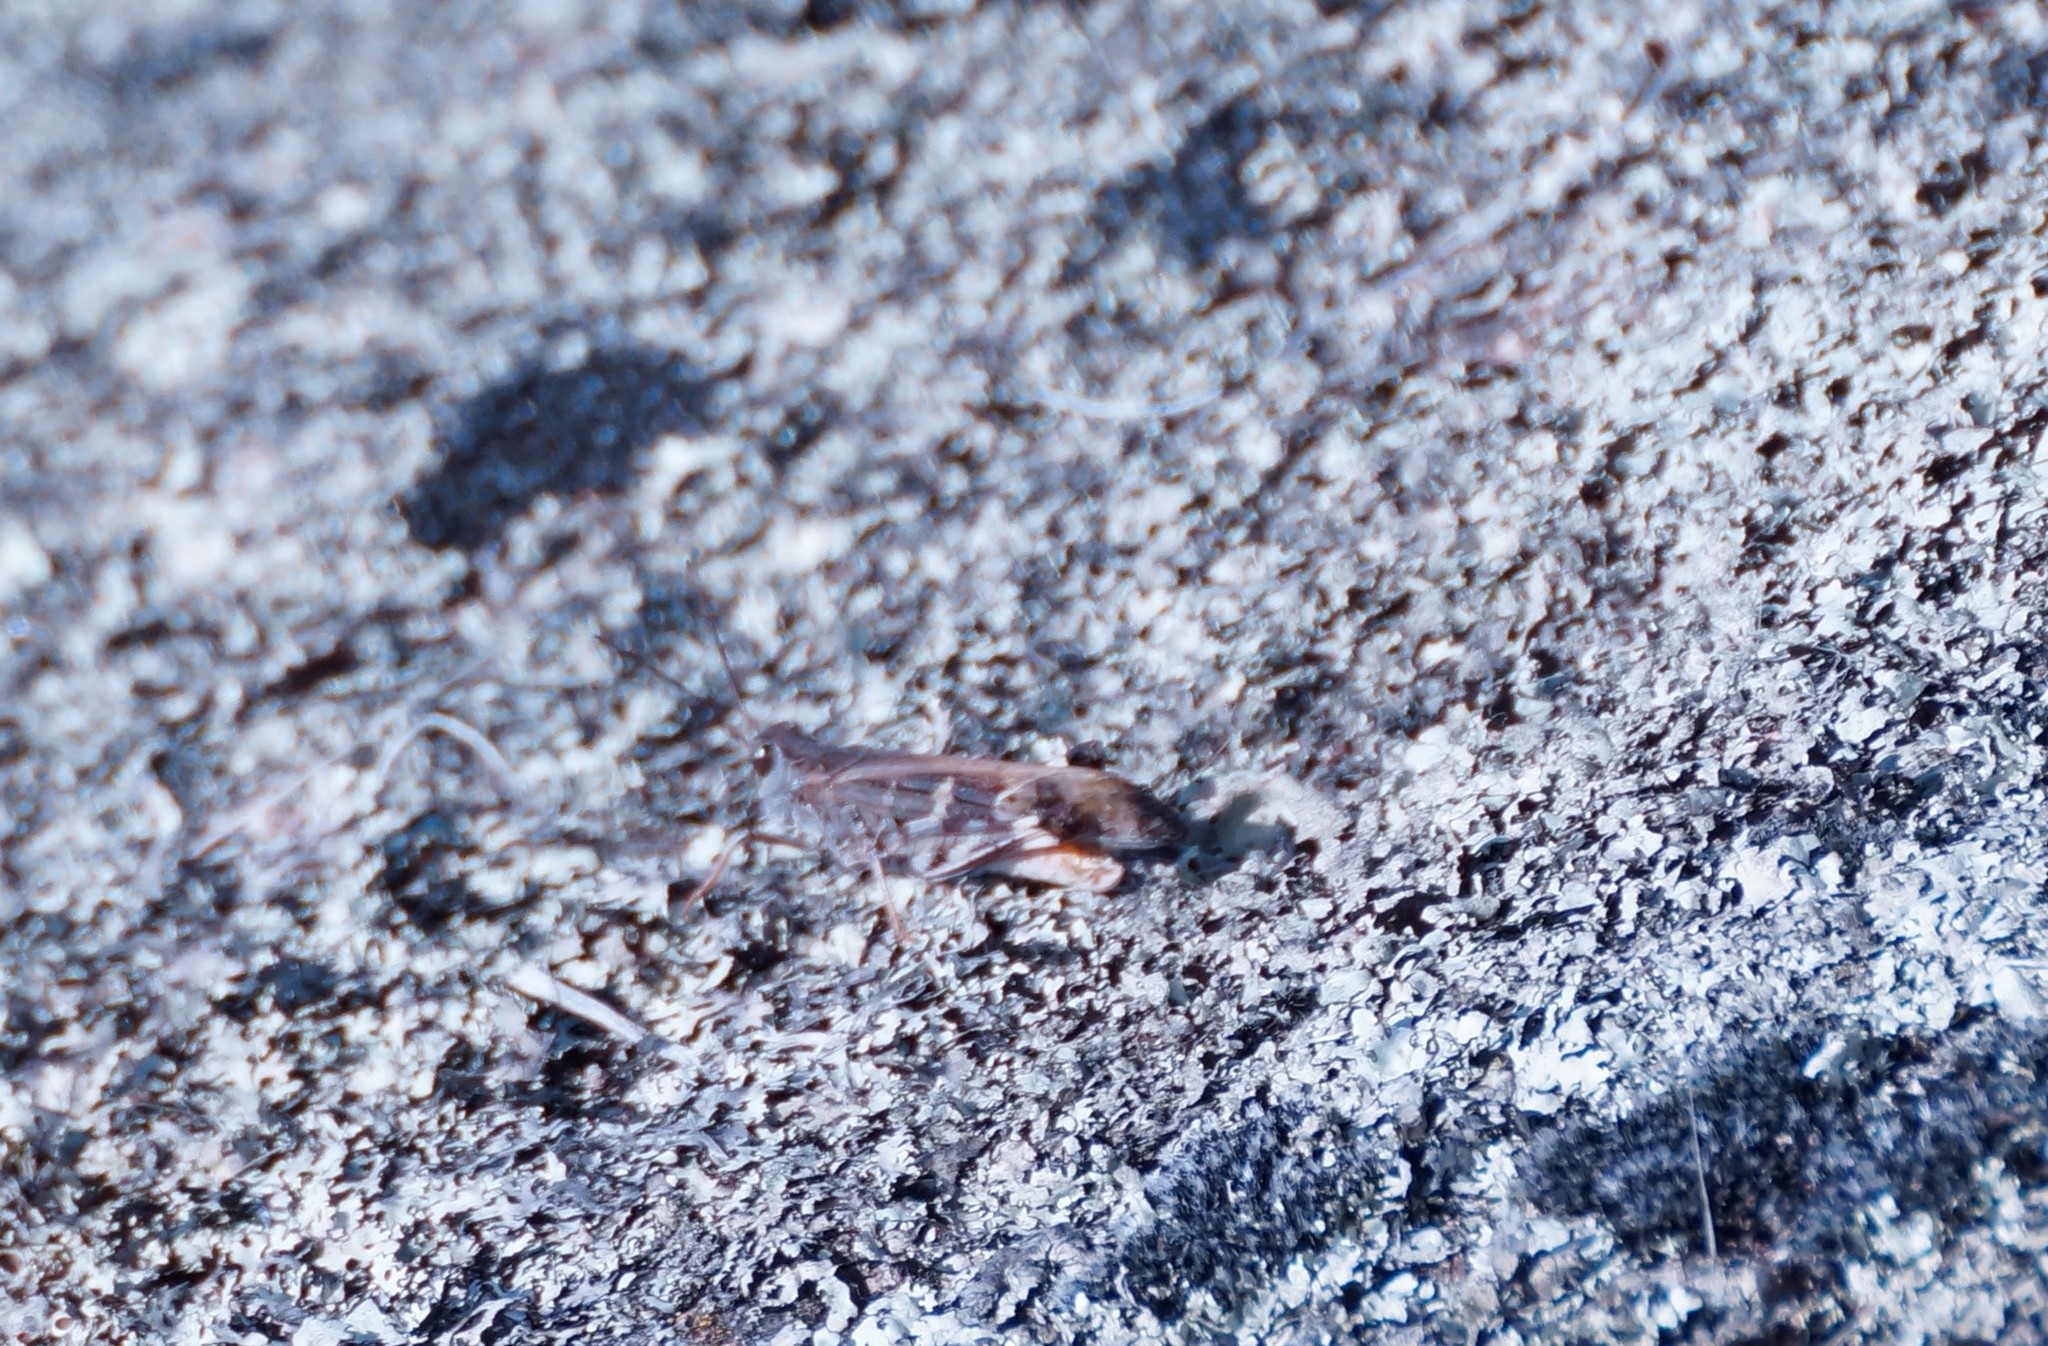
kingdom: Animalia
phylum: Arthropoda
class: Insecta
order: Orthoptera
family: Acrididae
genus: Oedaleus
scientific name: Oedaleus australis
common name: Eastern oedaleus
